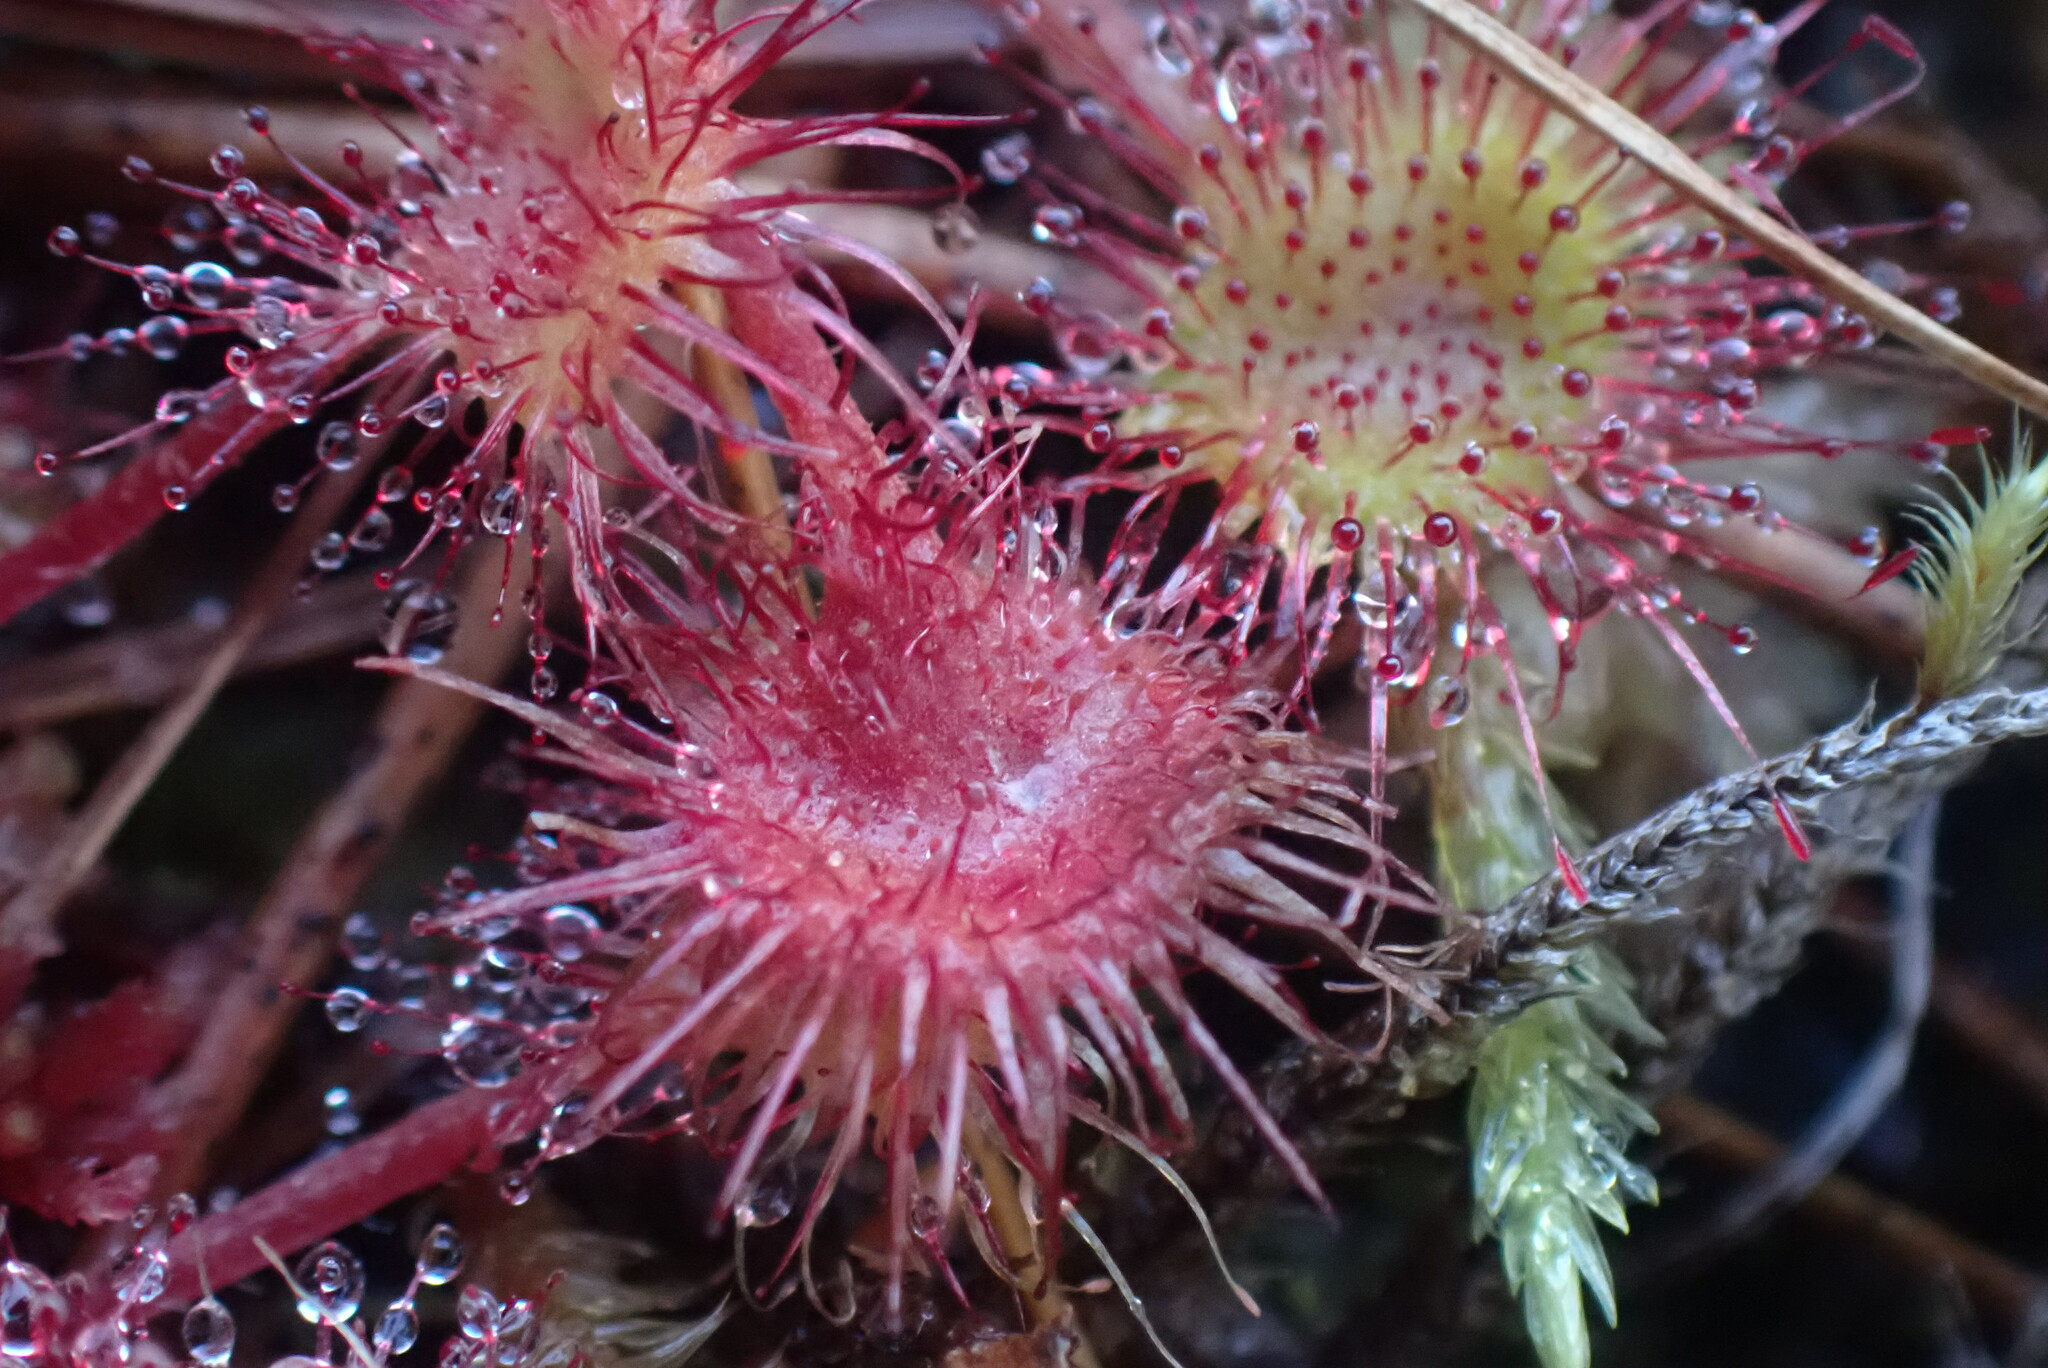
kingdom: Plantae
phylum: Tracheophyta
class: Magnoliopsida
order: Caryophyllales
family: Droseraceae
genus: Drosera
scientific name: Drosera rotundifolia
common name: Round-leaved sundew
